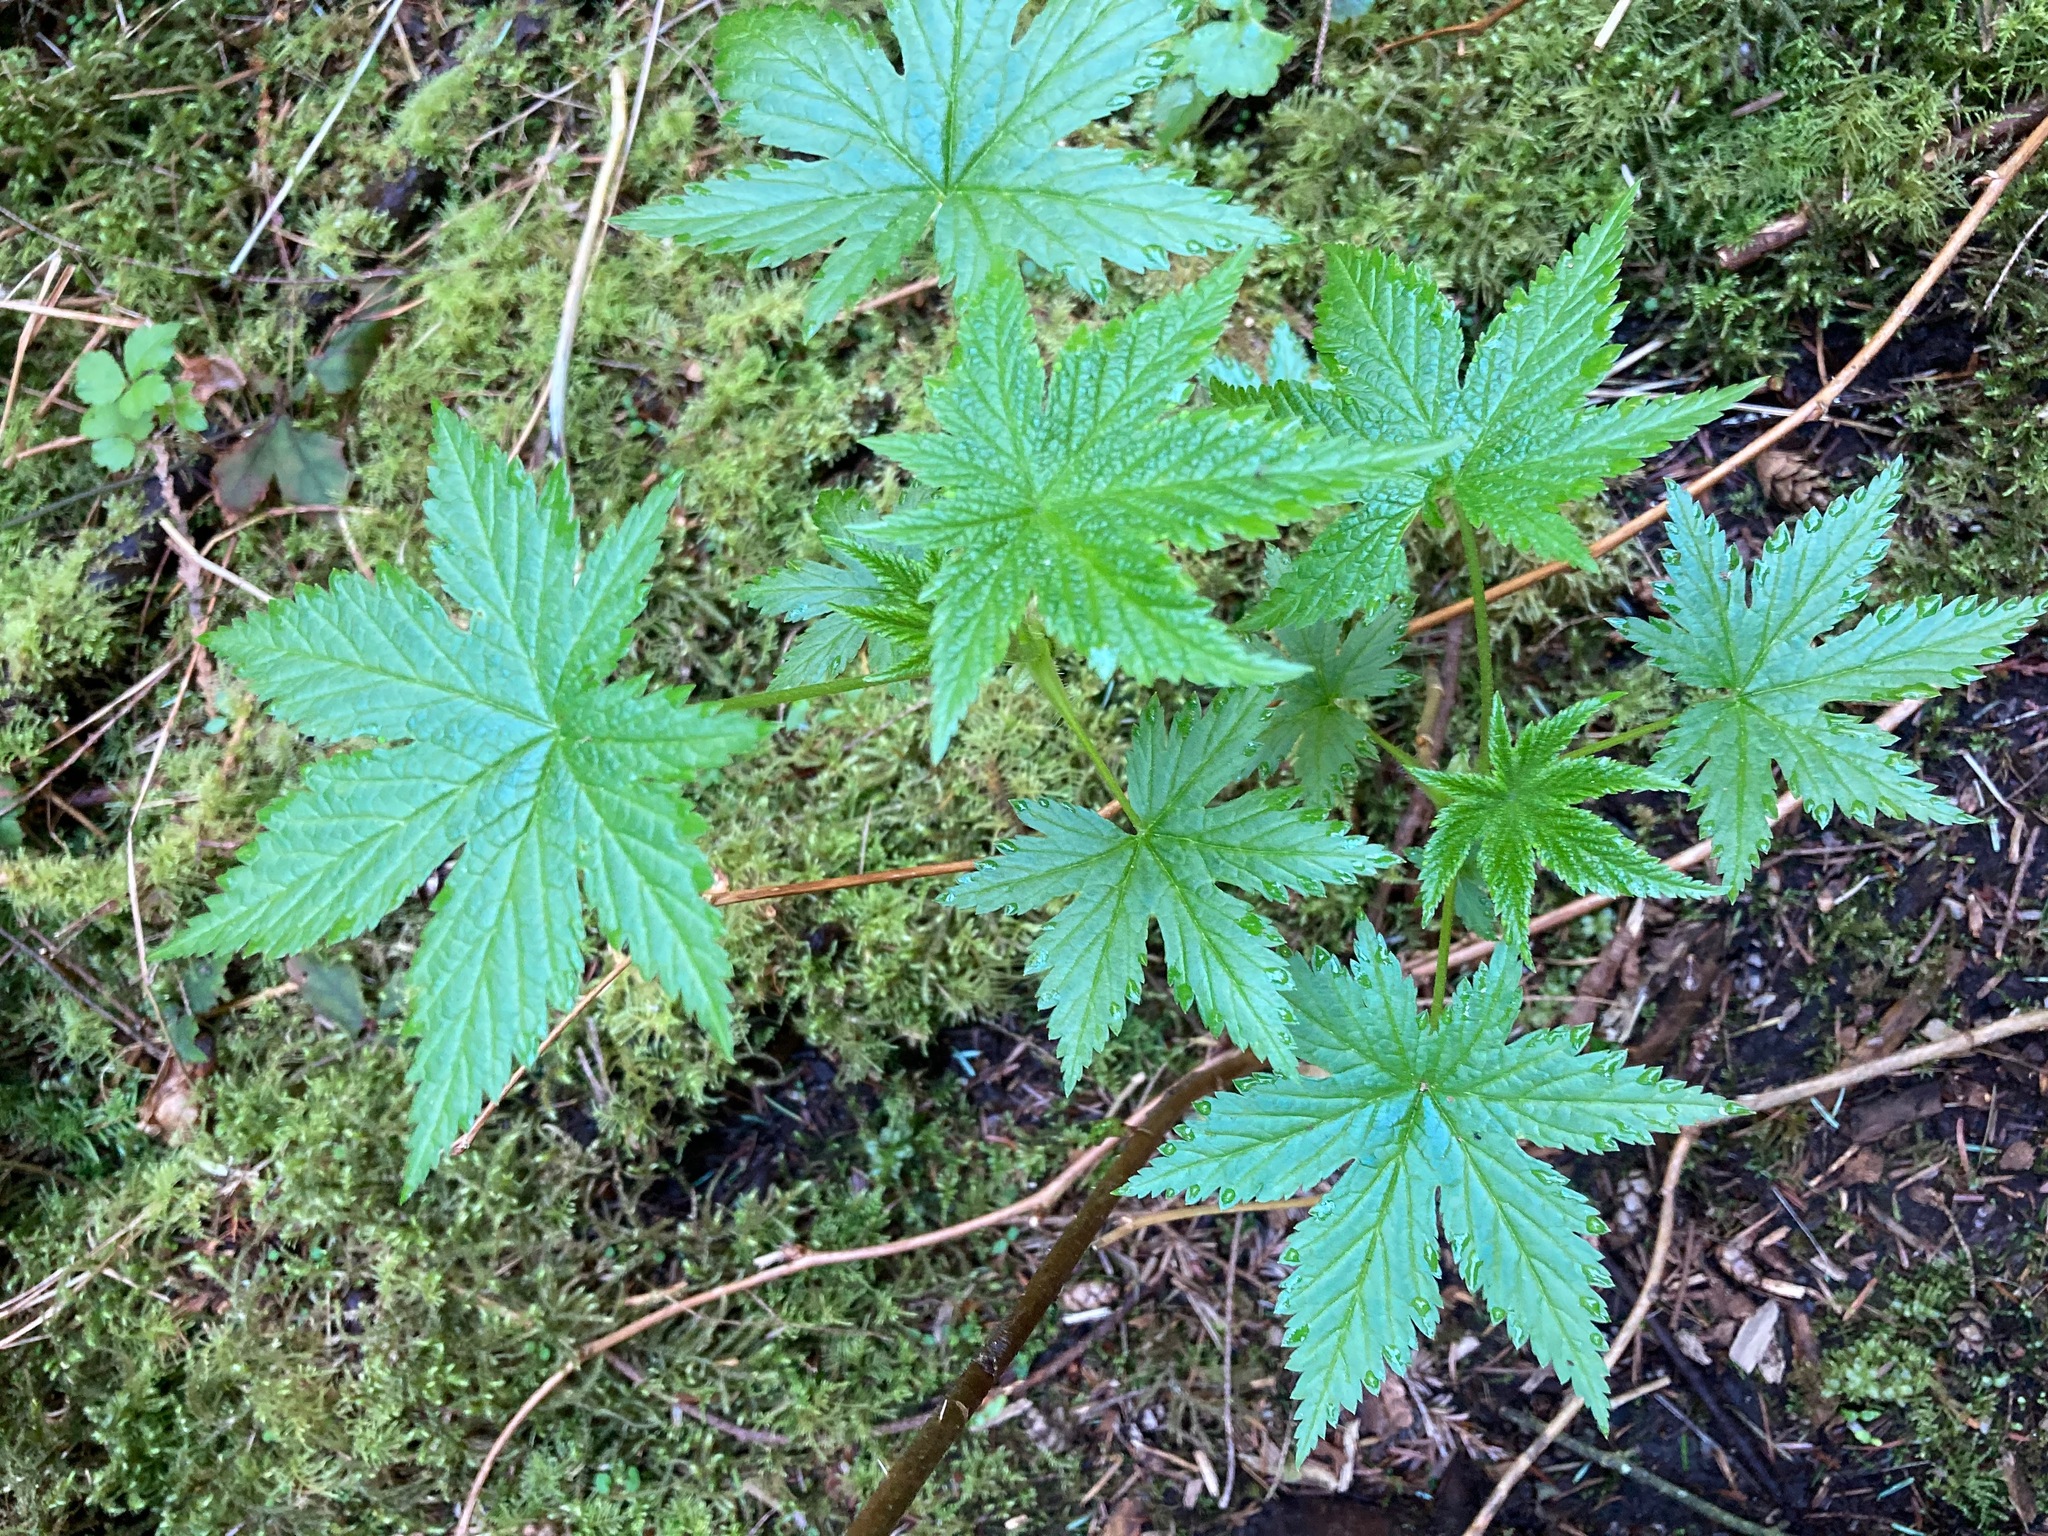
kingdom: Plantae
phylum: Tracheophyta
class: Magnoliopsida
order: Saxifragales
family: Grossulariaceae
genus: Ribes
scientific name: Ribes bracteosum
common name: California black currant
